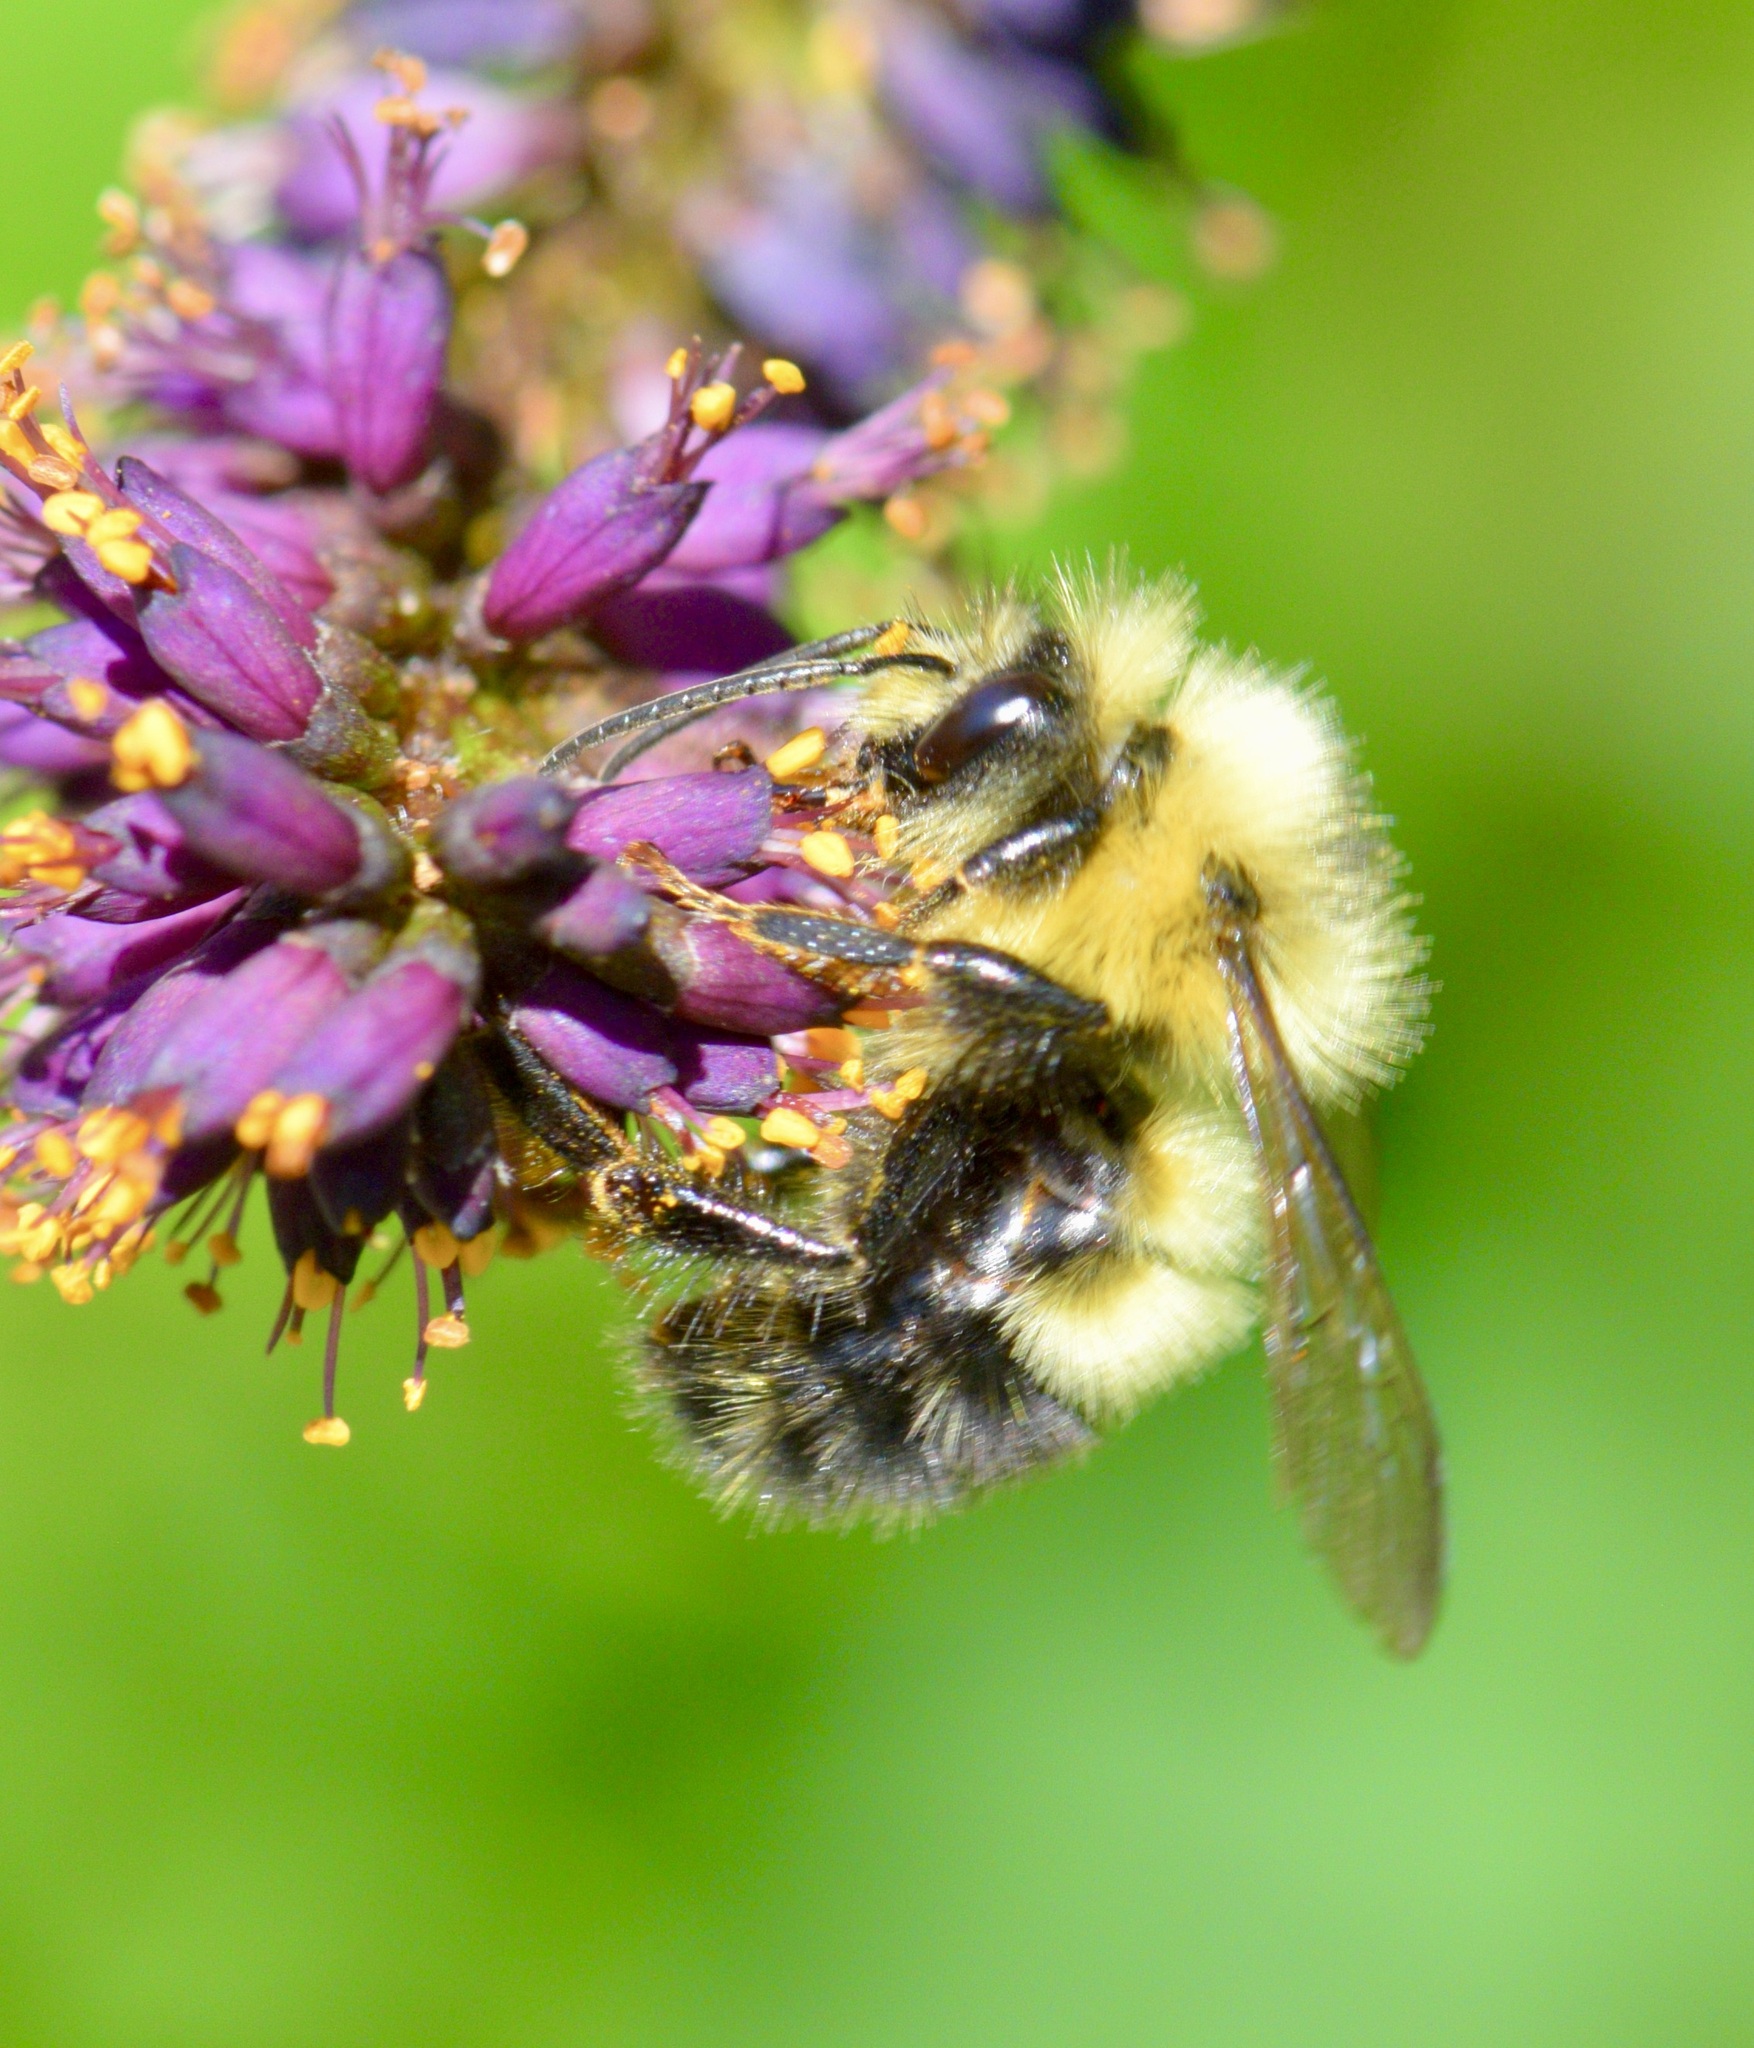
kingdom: Animalia
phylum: Arthropoda
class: Insecta
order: Hymenoptera
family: Apidae
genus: Bombus
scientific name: Bombus vagans
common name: Half-black bumble bee
